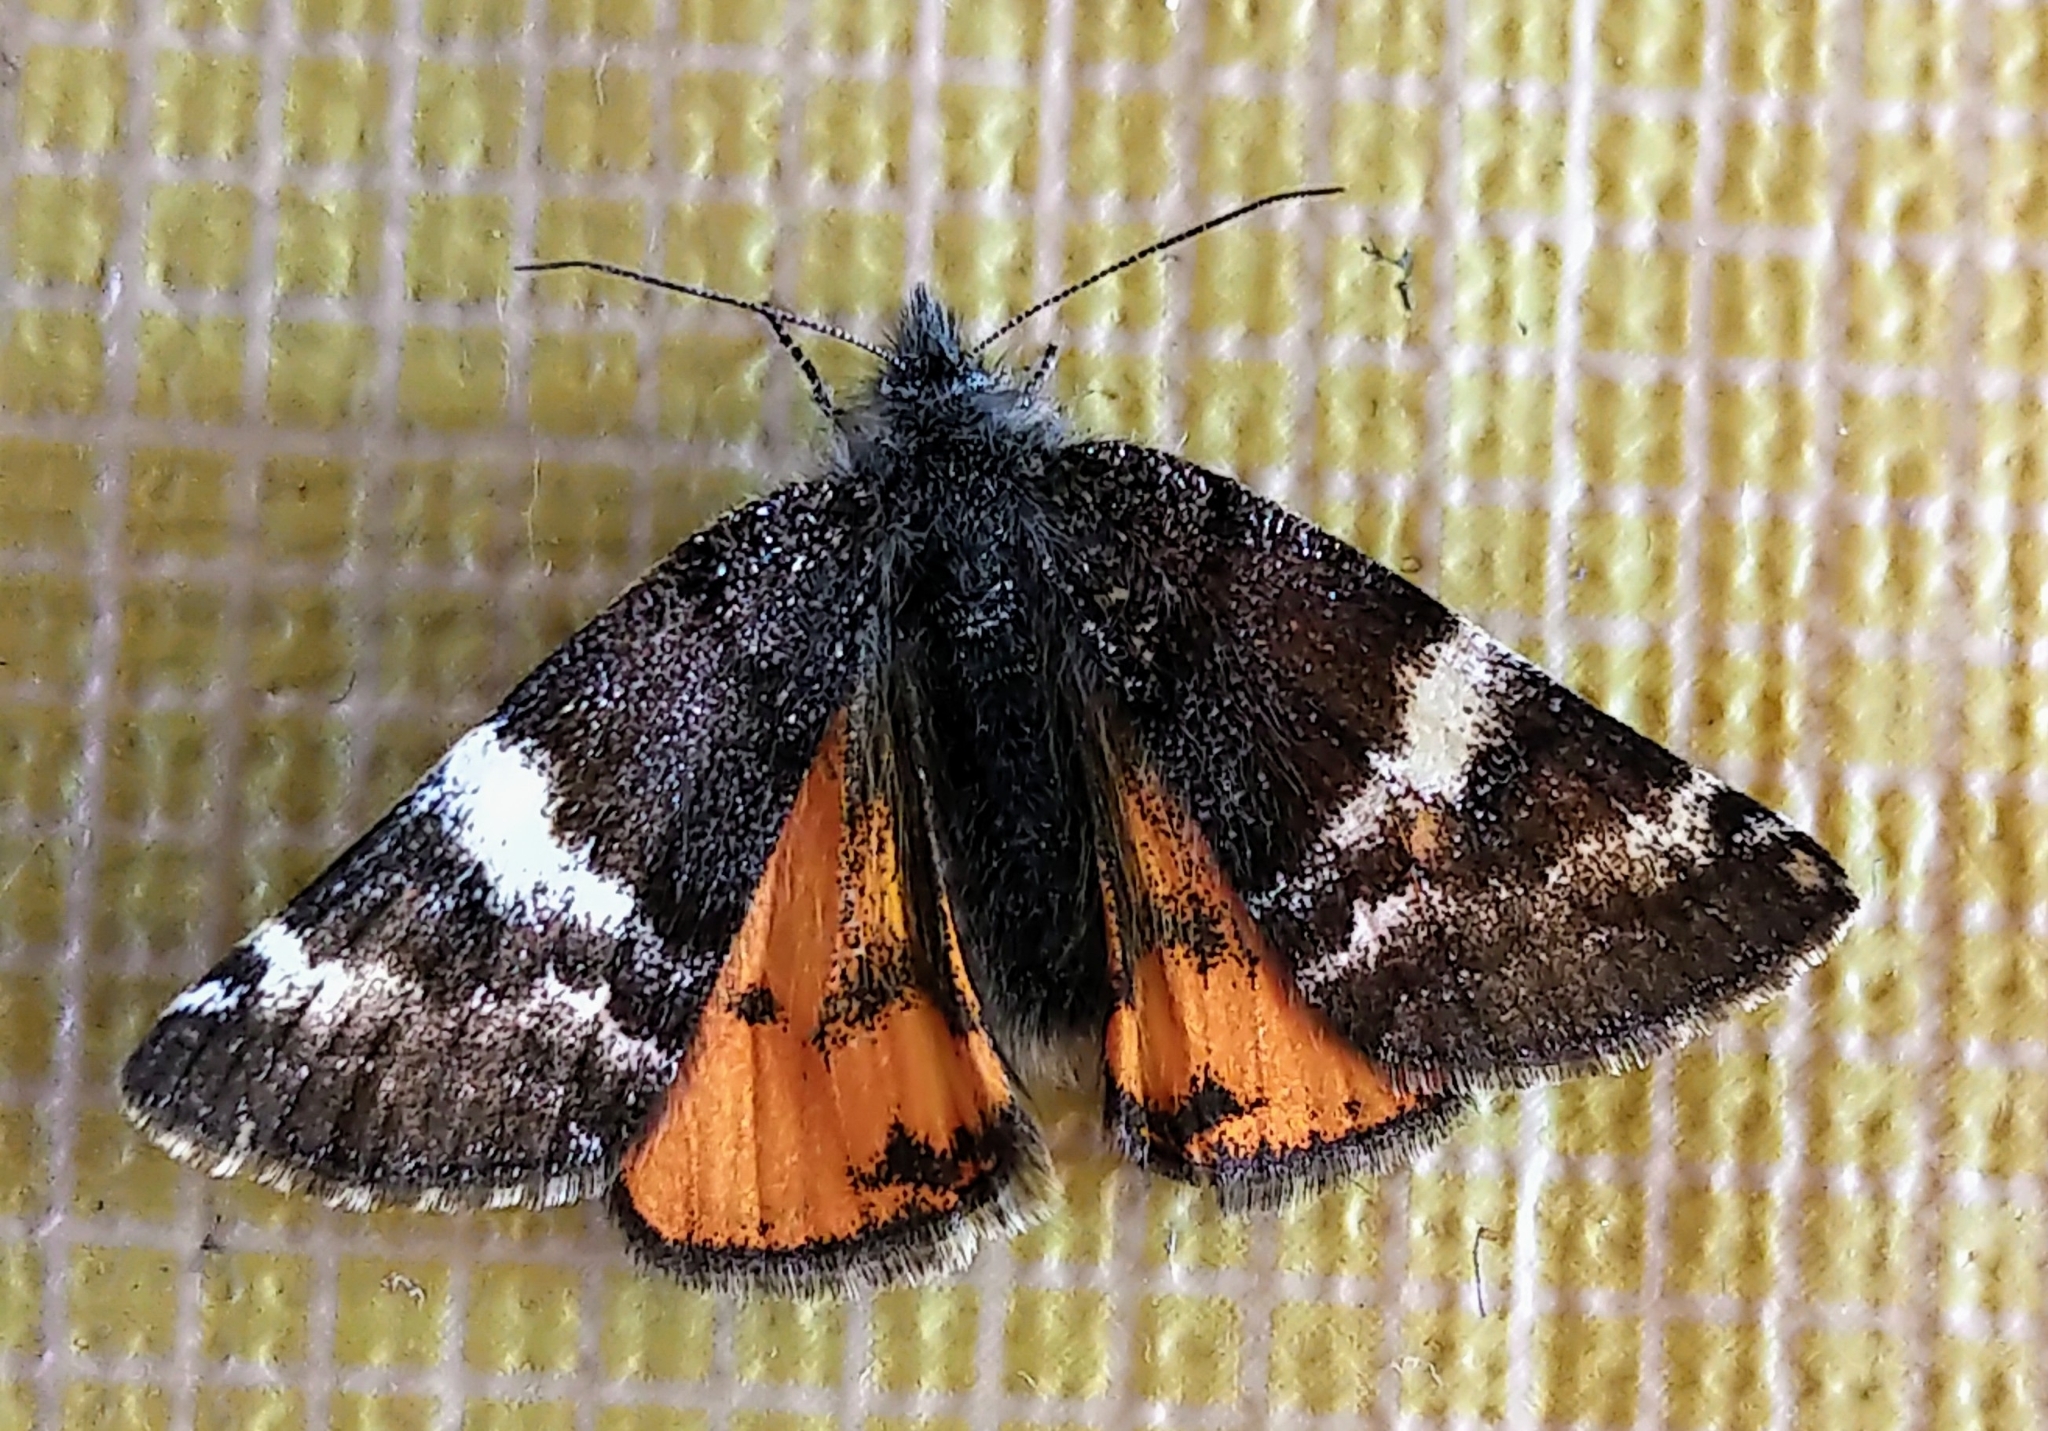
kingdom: Animalia
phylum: Arthropoda
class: Insecta
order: Lepidoptera
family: Geometridae
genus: Archiearis
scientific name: Archiearis infans
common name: First born geometer
